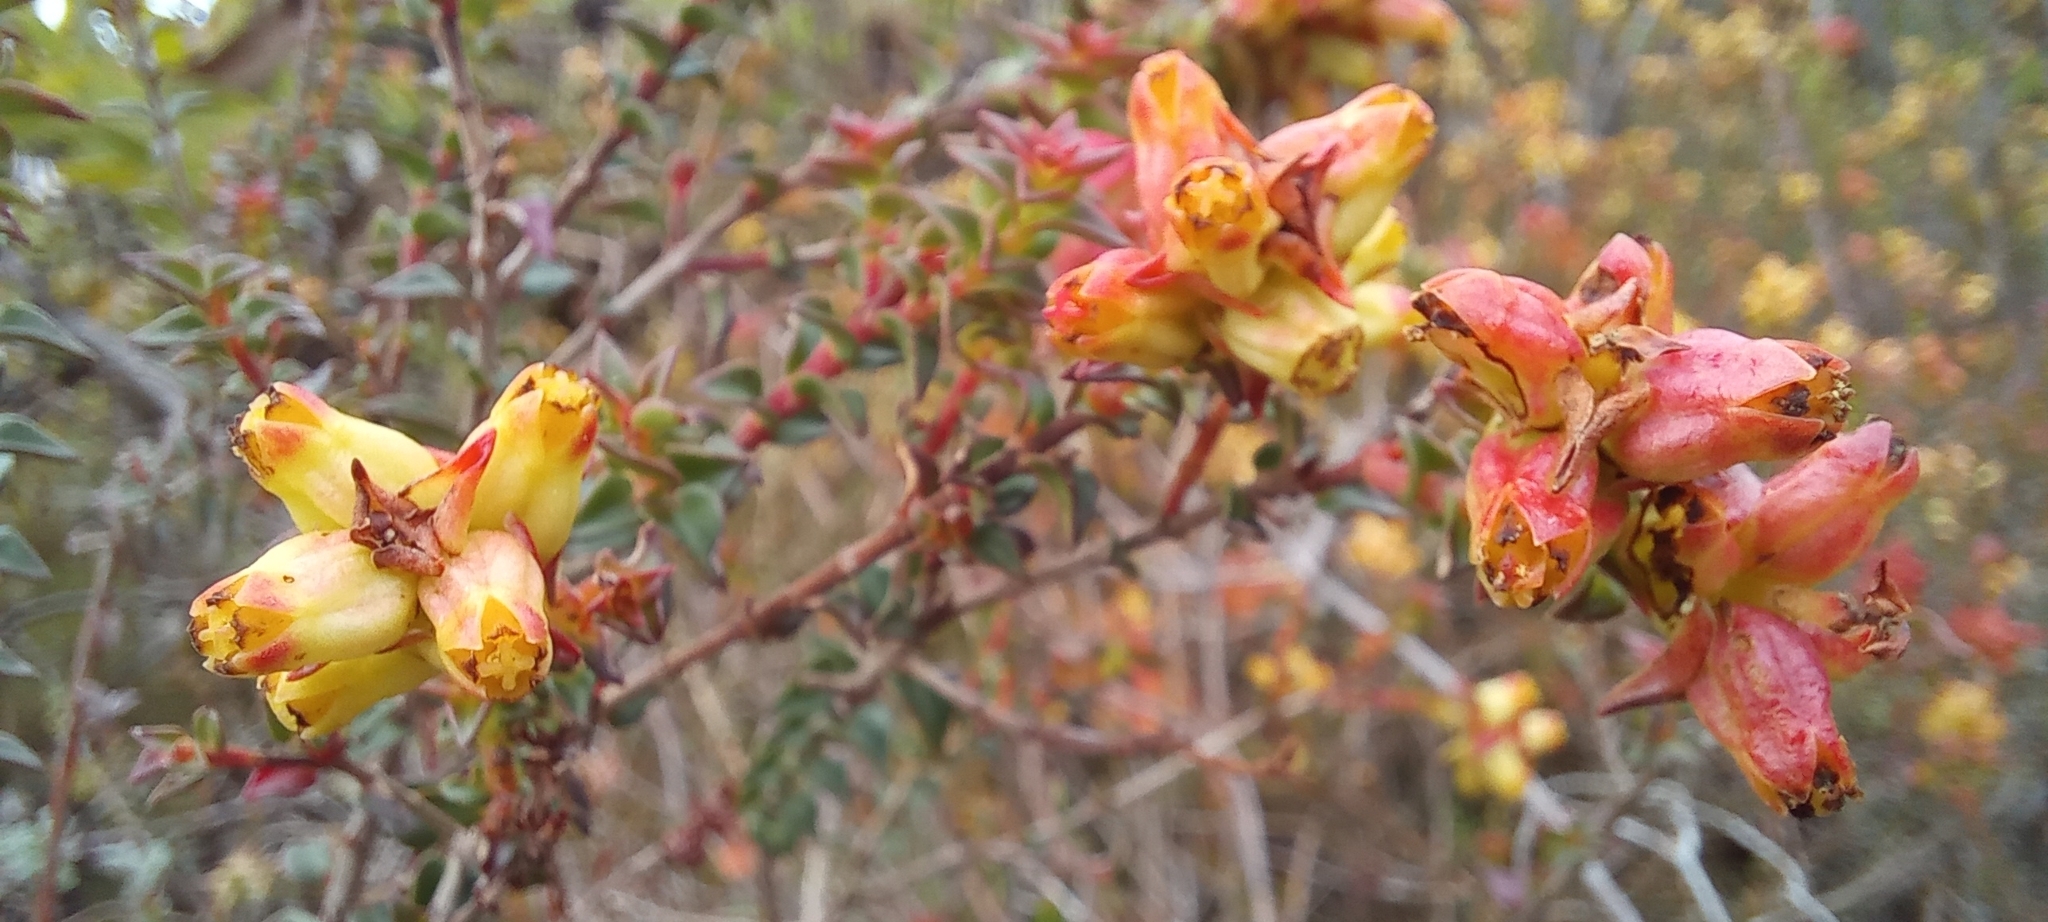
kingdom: Plantae
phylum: Tracheophyta
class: Magnoliopsida
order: Myrtales
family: Penaeaceae
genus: Penaea
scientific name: Penaea mucronata
